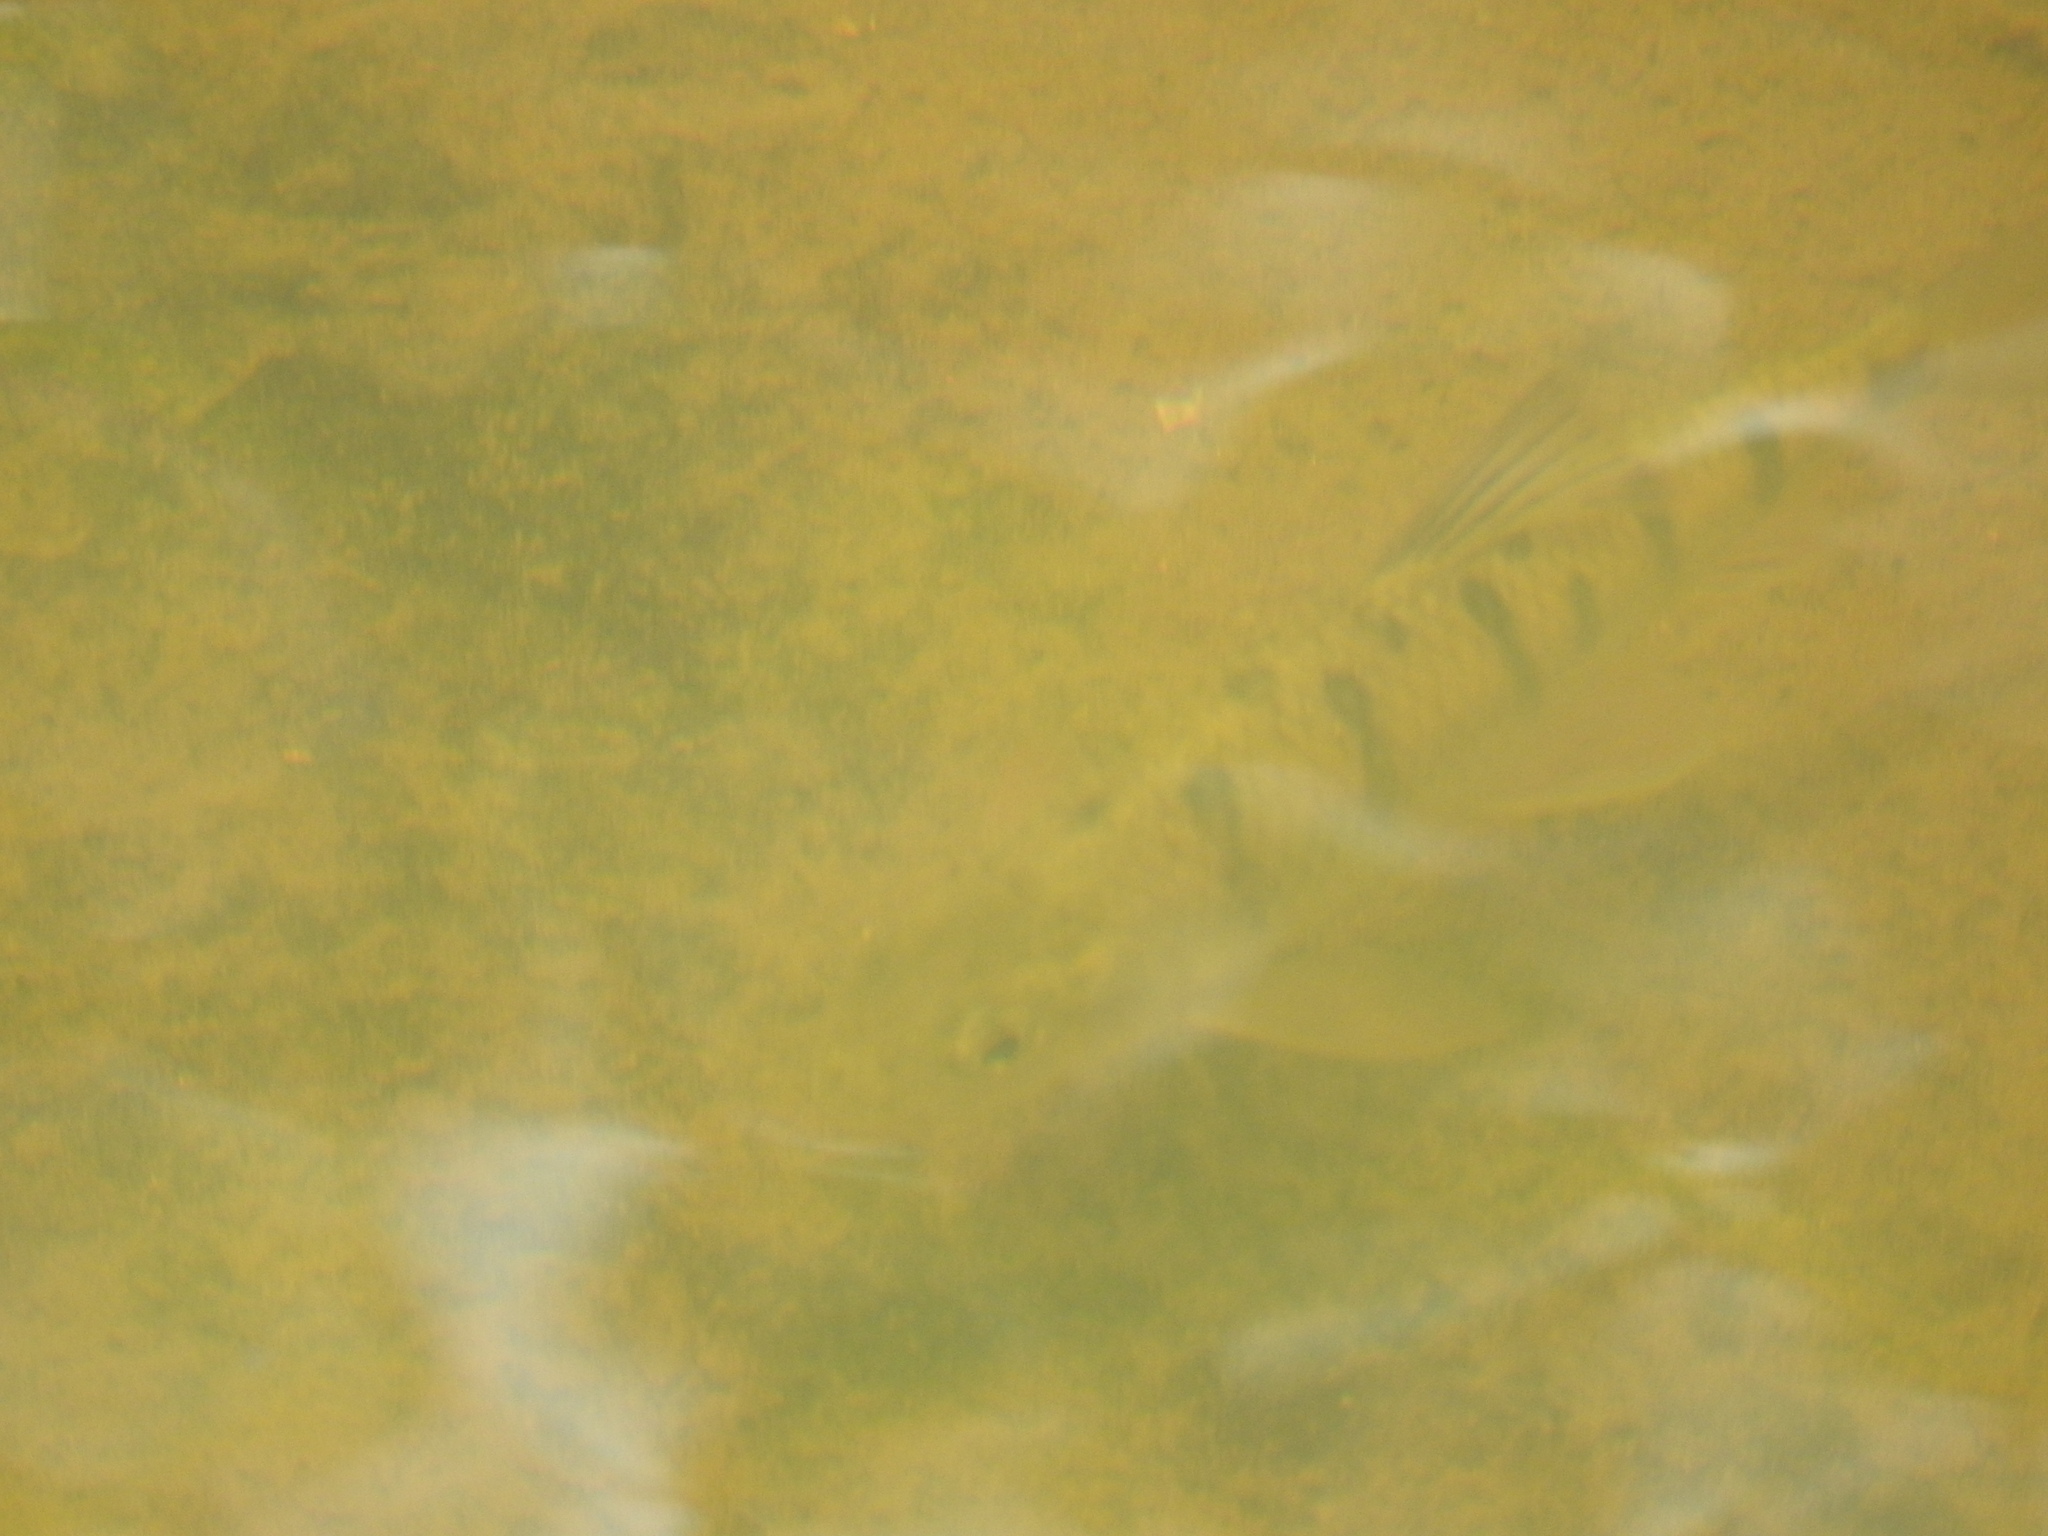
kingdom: Animalia
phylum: Chordata
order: Cypriniformes
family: Cyprinidae
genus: Acrossocheilus
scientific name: Acrossocheilus paradoxus
